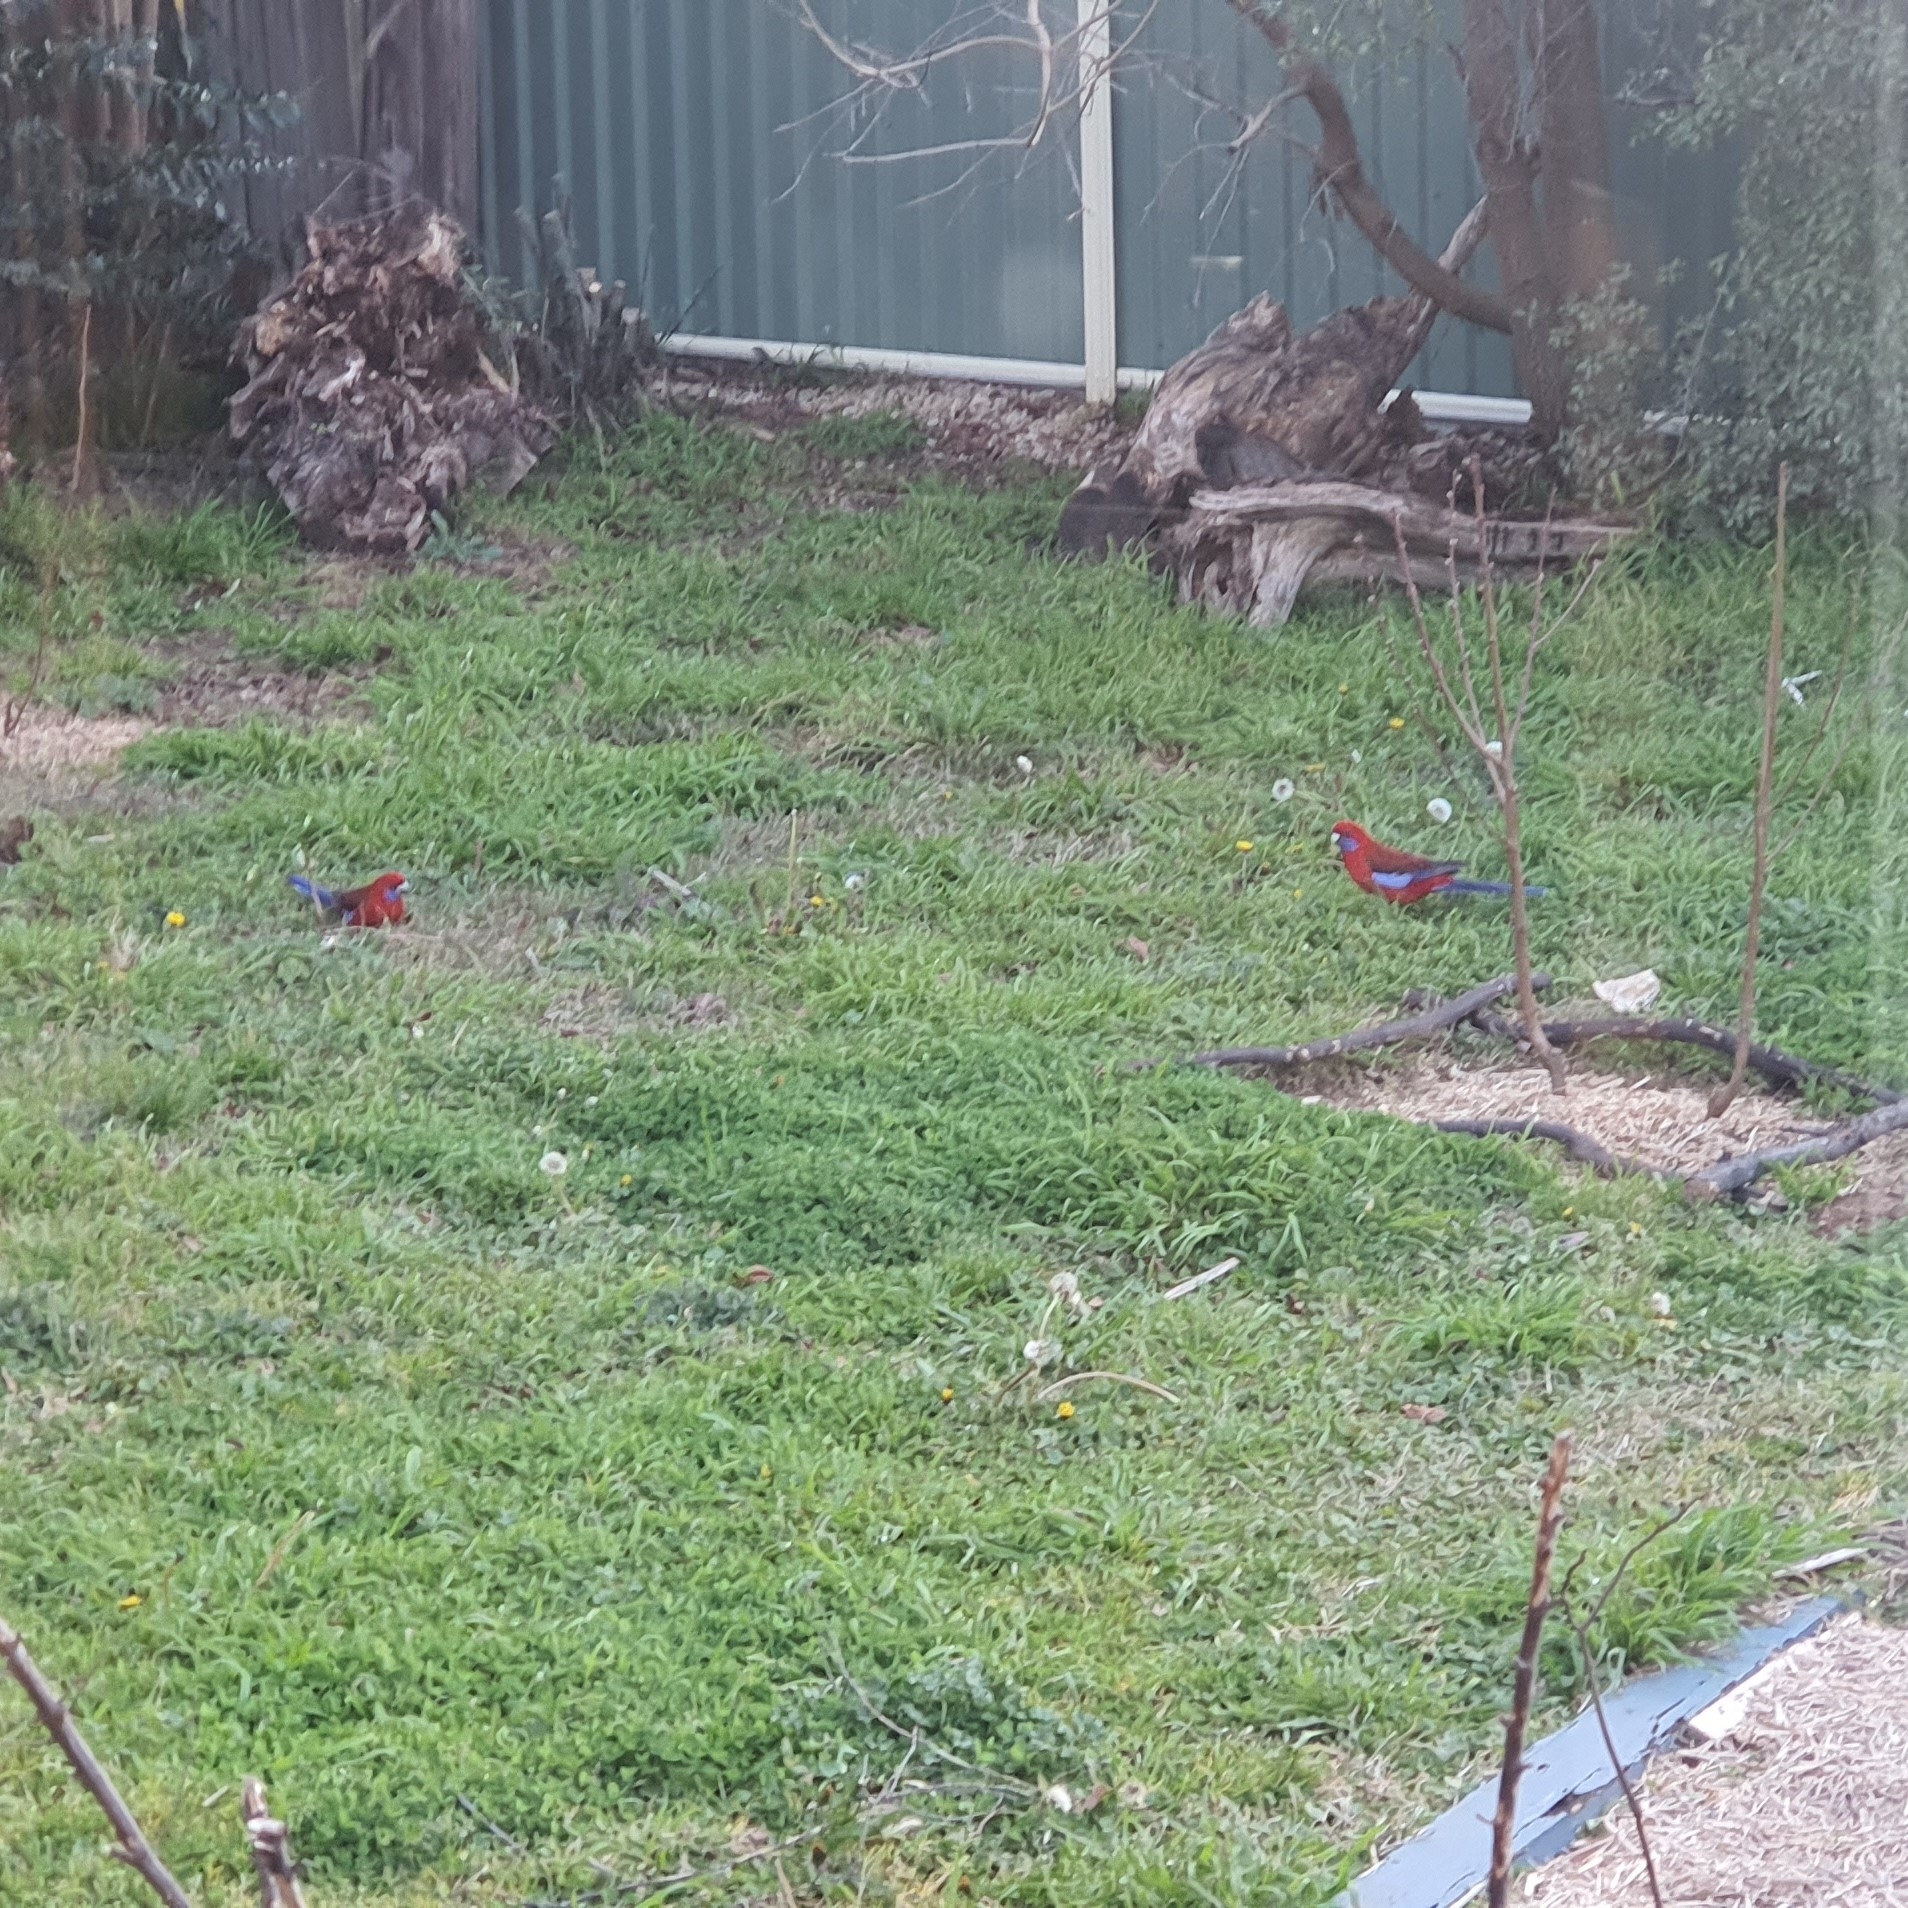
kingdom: Animalia
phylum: Chordata
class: Aves
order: Psittaciformes
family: Psittacidae
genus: Platycercus
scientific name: Platycercus elegans
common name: Crimson rosella
